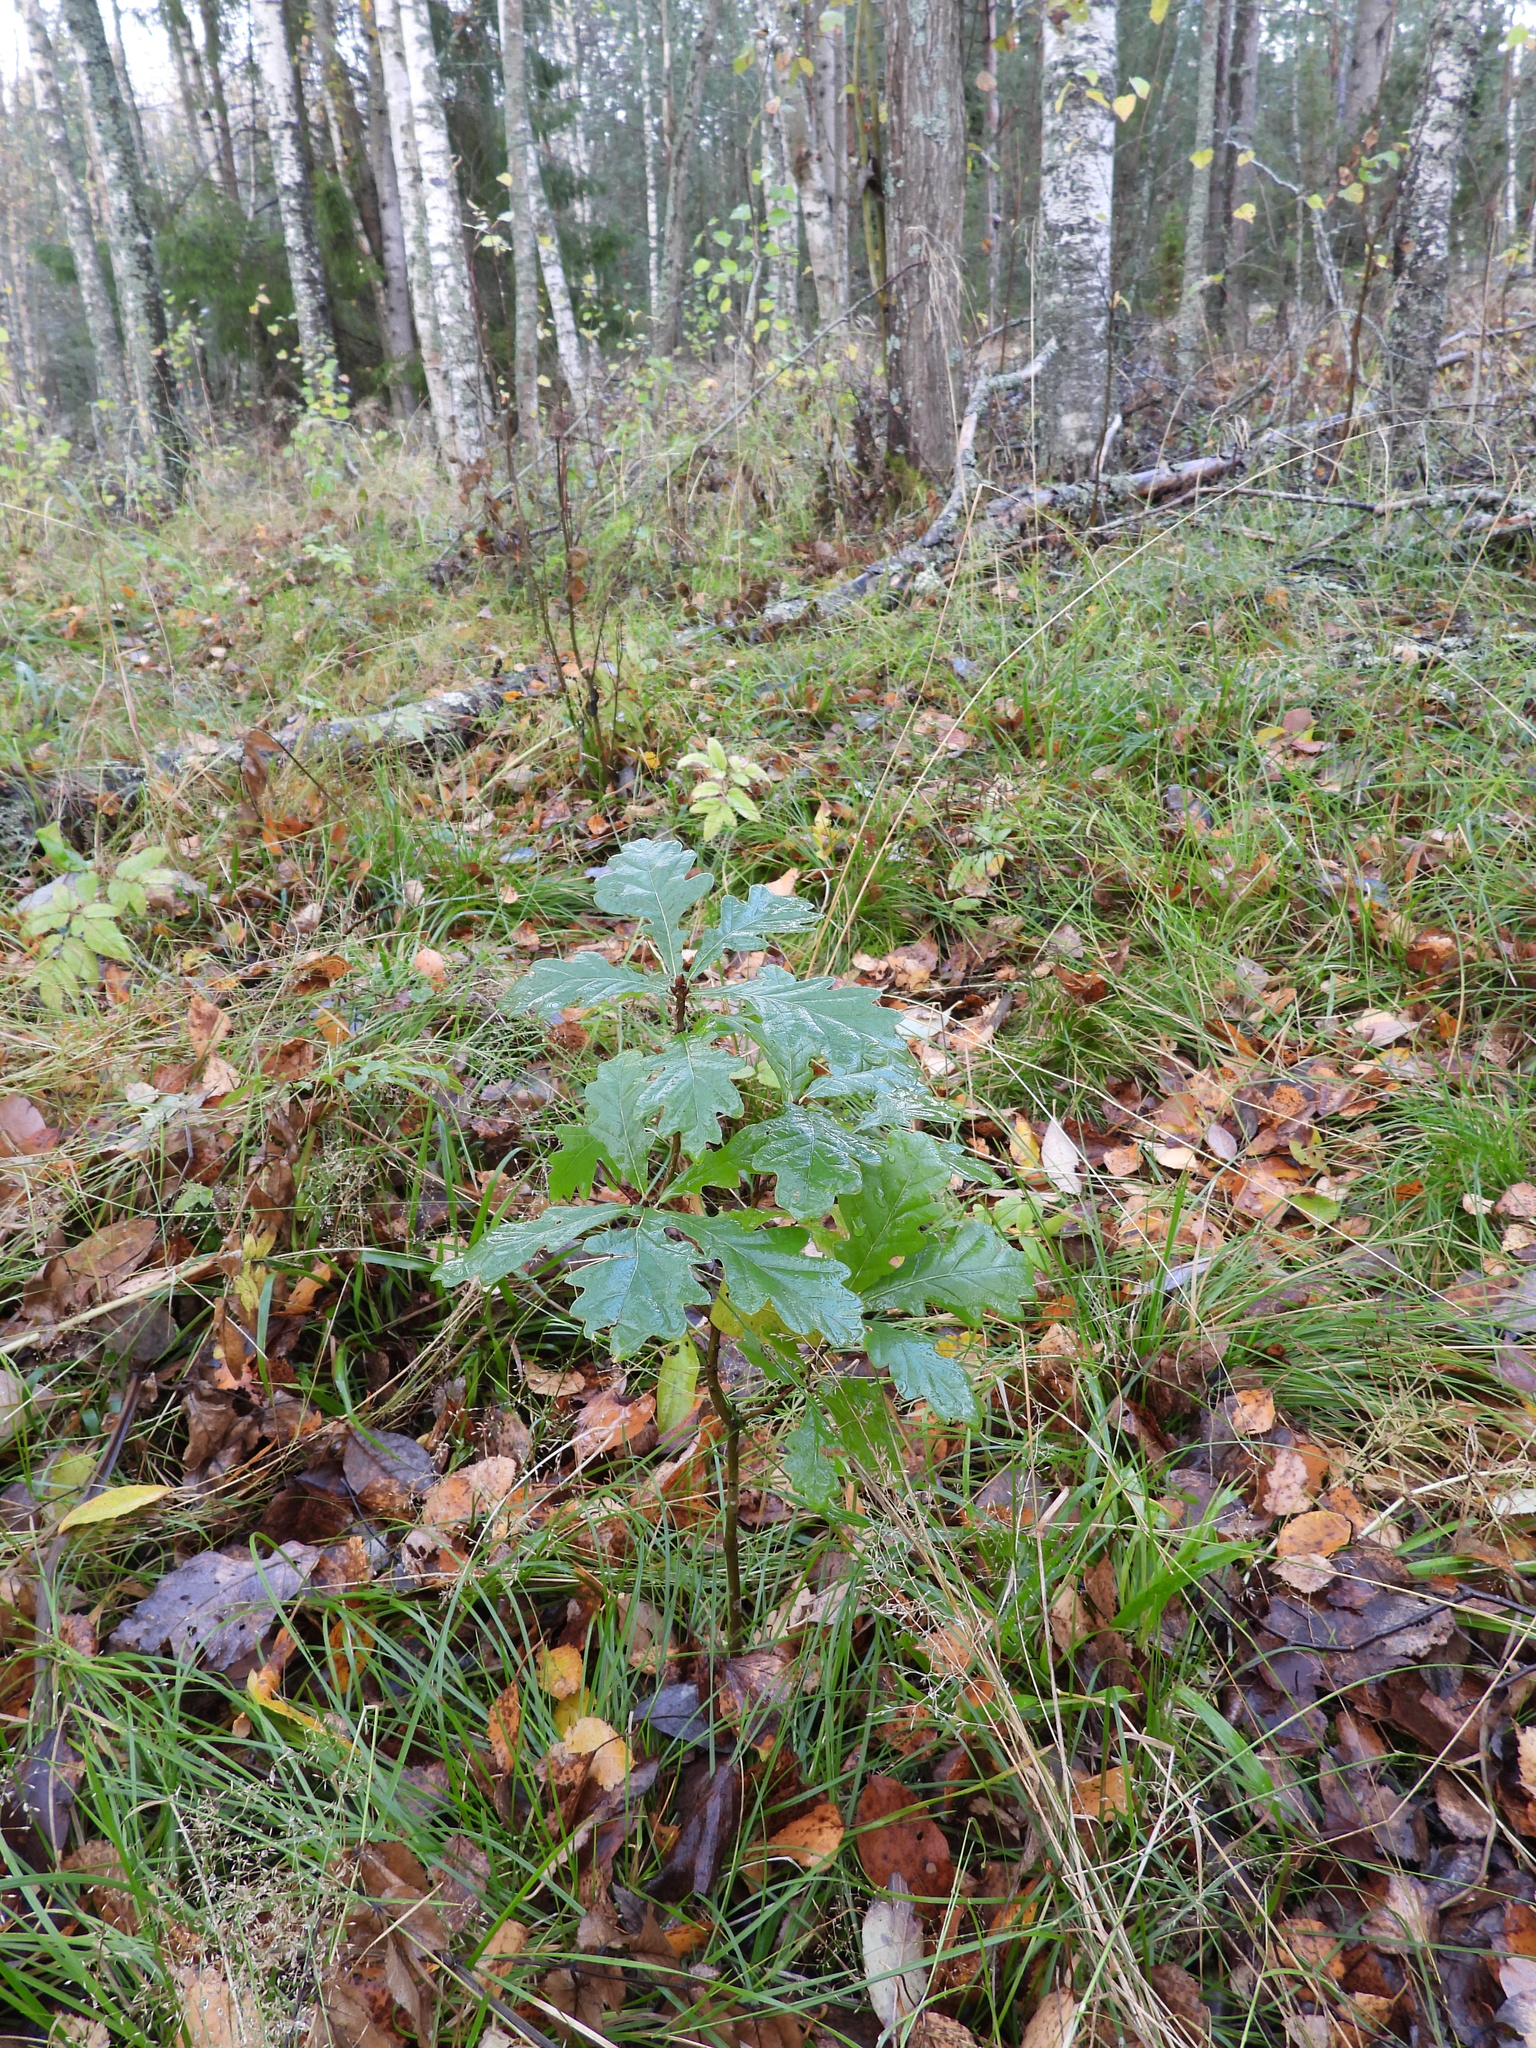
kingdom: Plantae
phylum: Tracheophyta
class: Magnoliopsida
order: Fagales
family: Fagaceae
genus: Quercus
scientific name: Quercus robur
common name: Pedunculate oak
